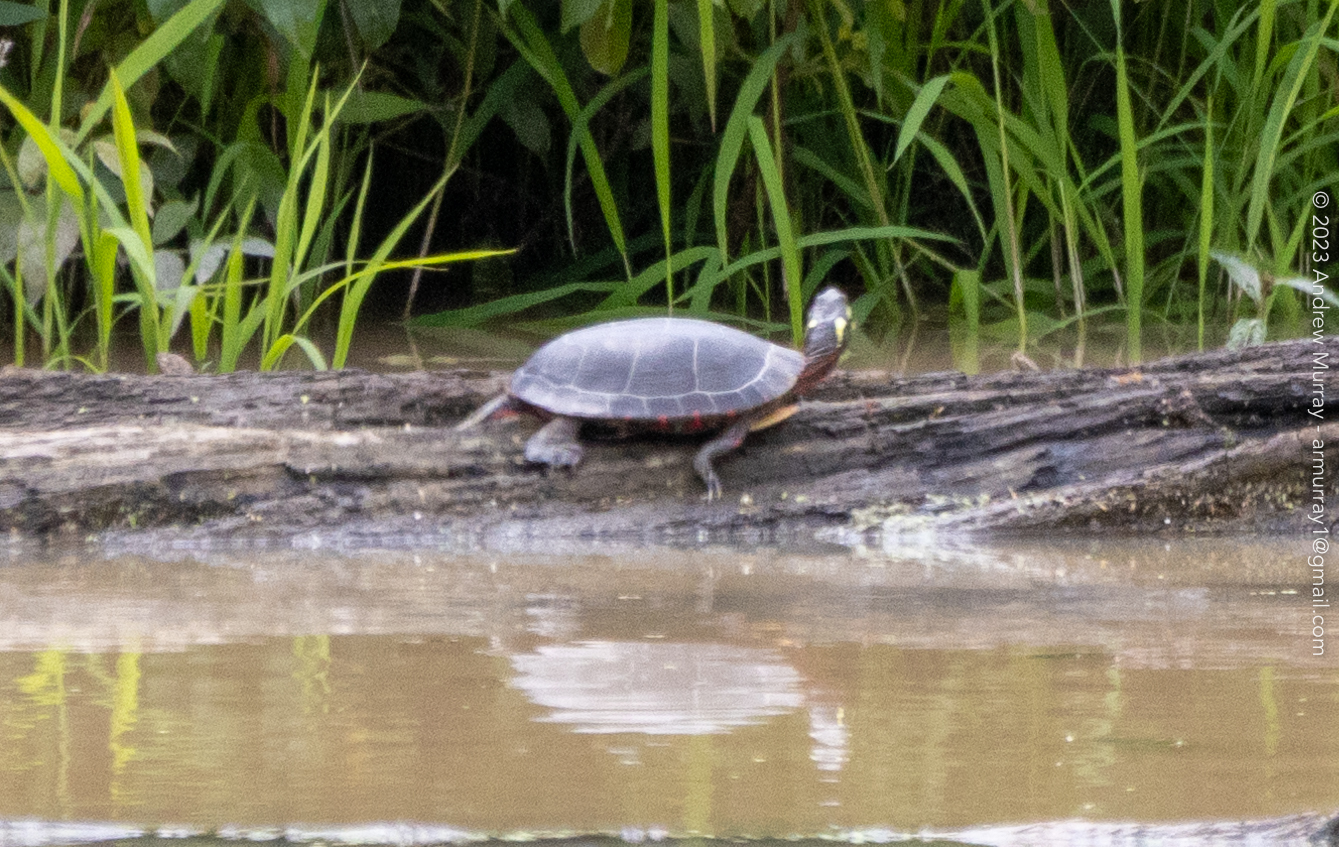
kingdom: Animalia
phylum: Chordata
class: Testudines
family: Emydidae
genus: Chrysemys
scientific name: Chrysemys picta
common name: Painted turtle
